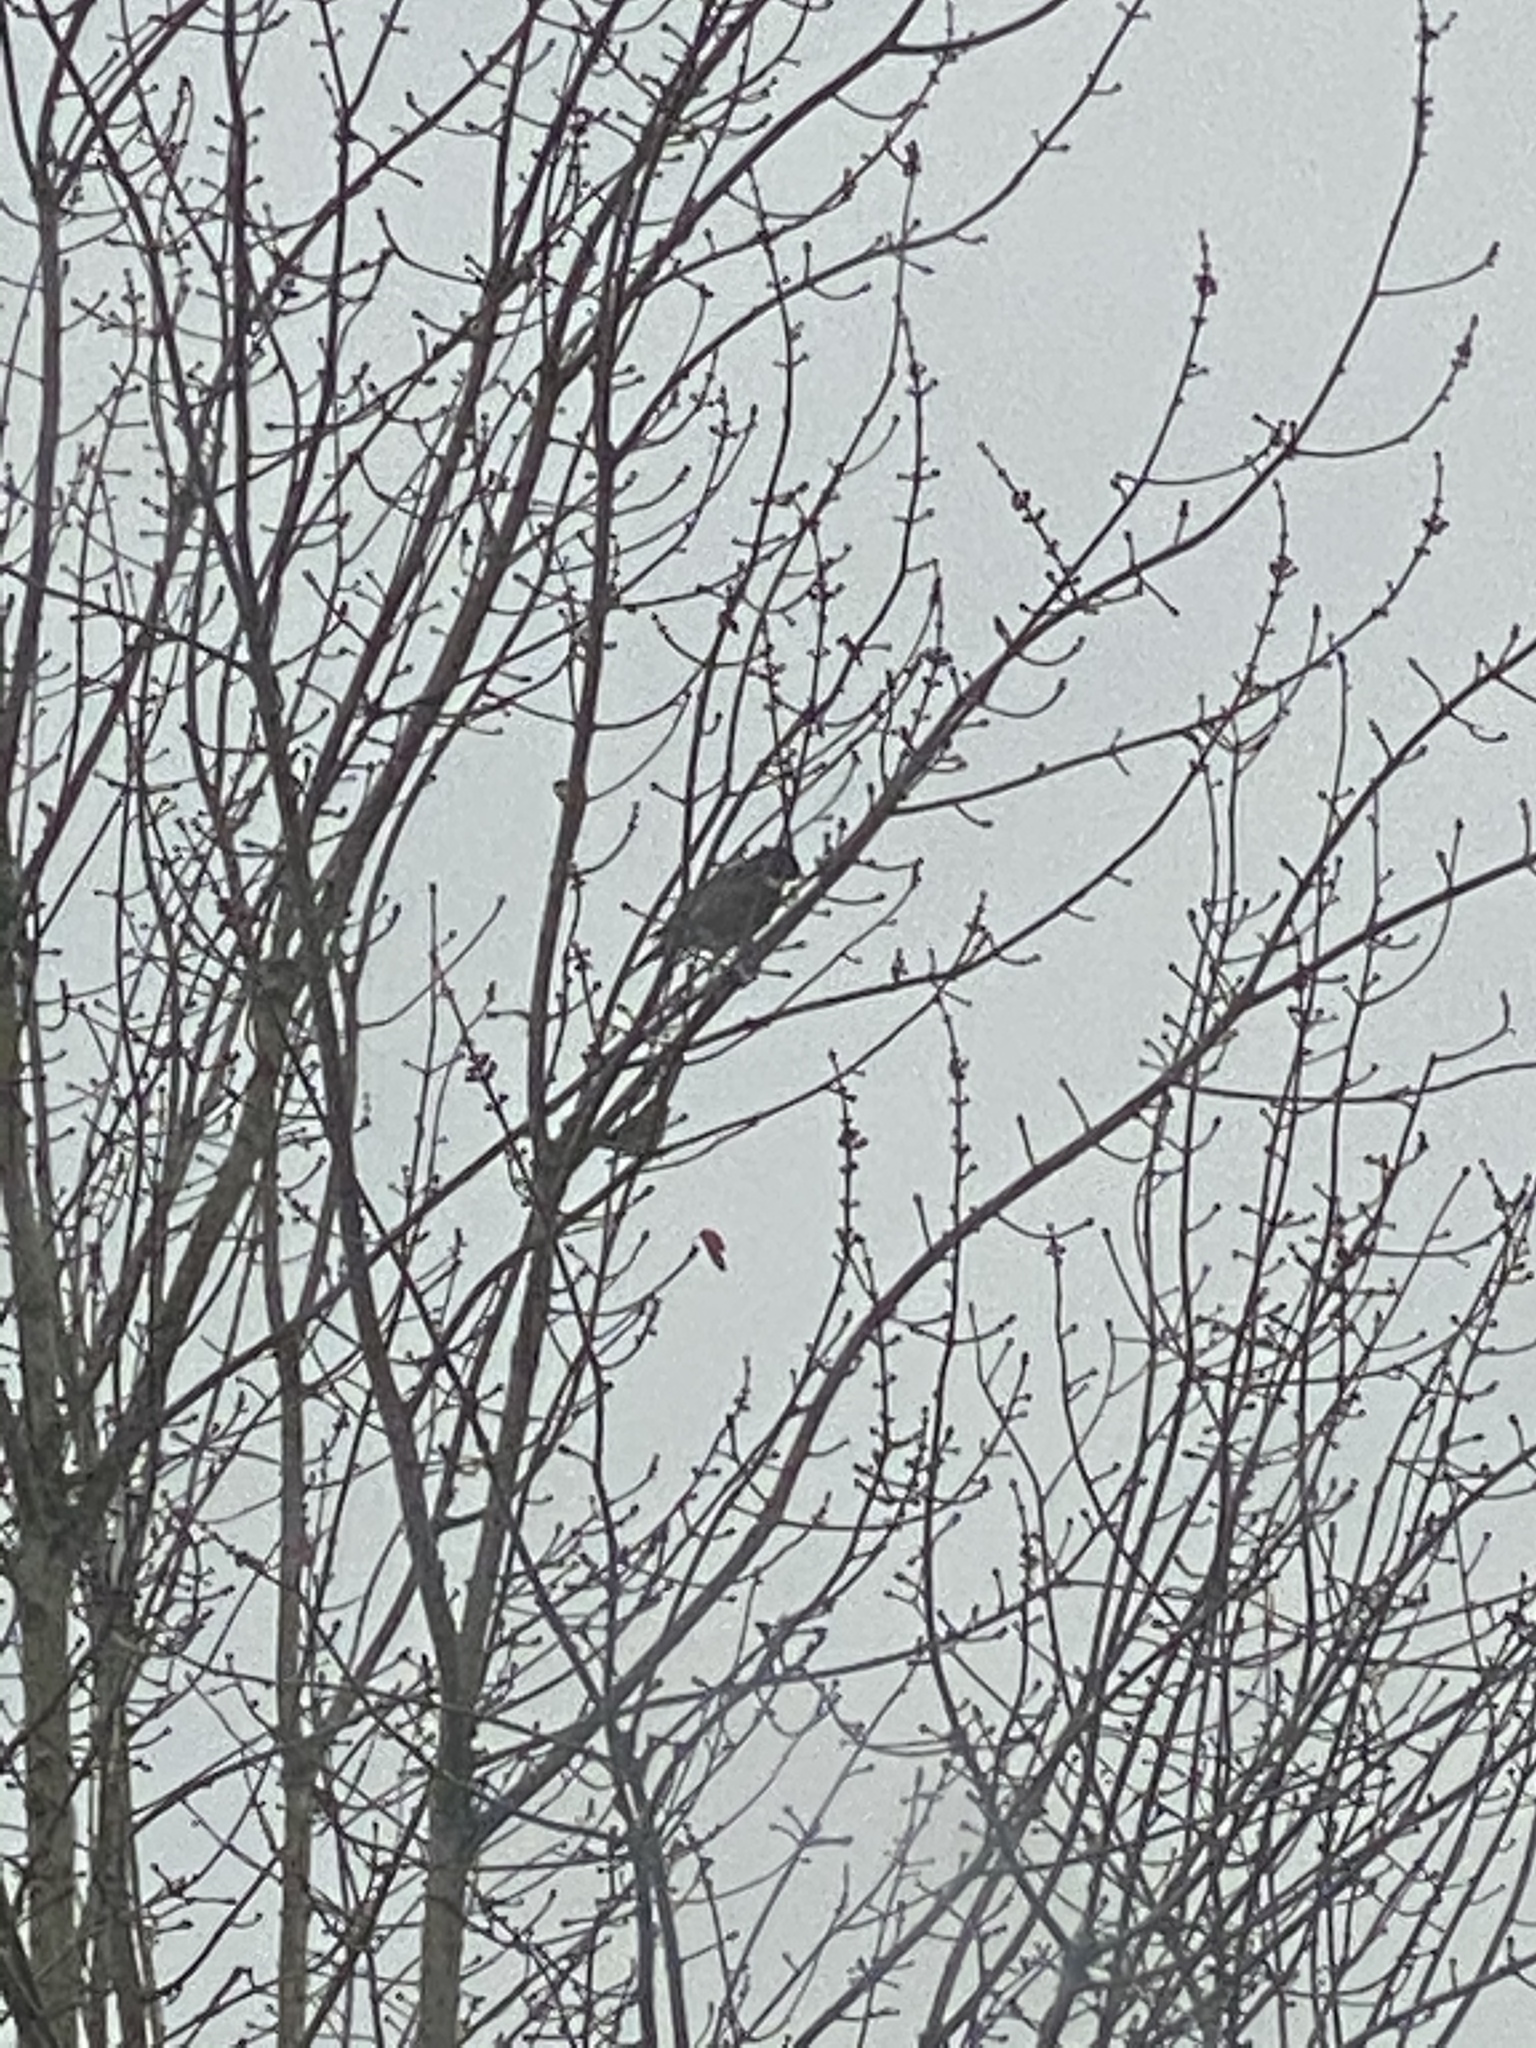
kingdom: Animalia
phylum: Chordata
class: Aves
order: Passeriformes
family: Paridae
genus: Poecile
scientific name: Poecile atricapillus
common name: Black-capped chickadee
